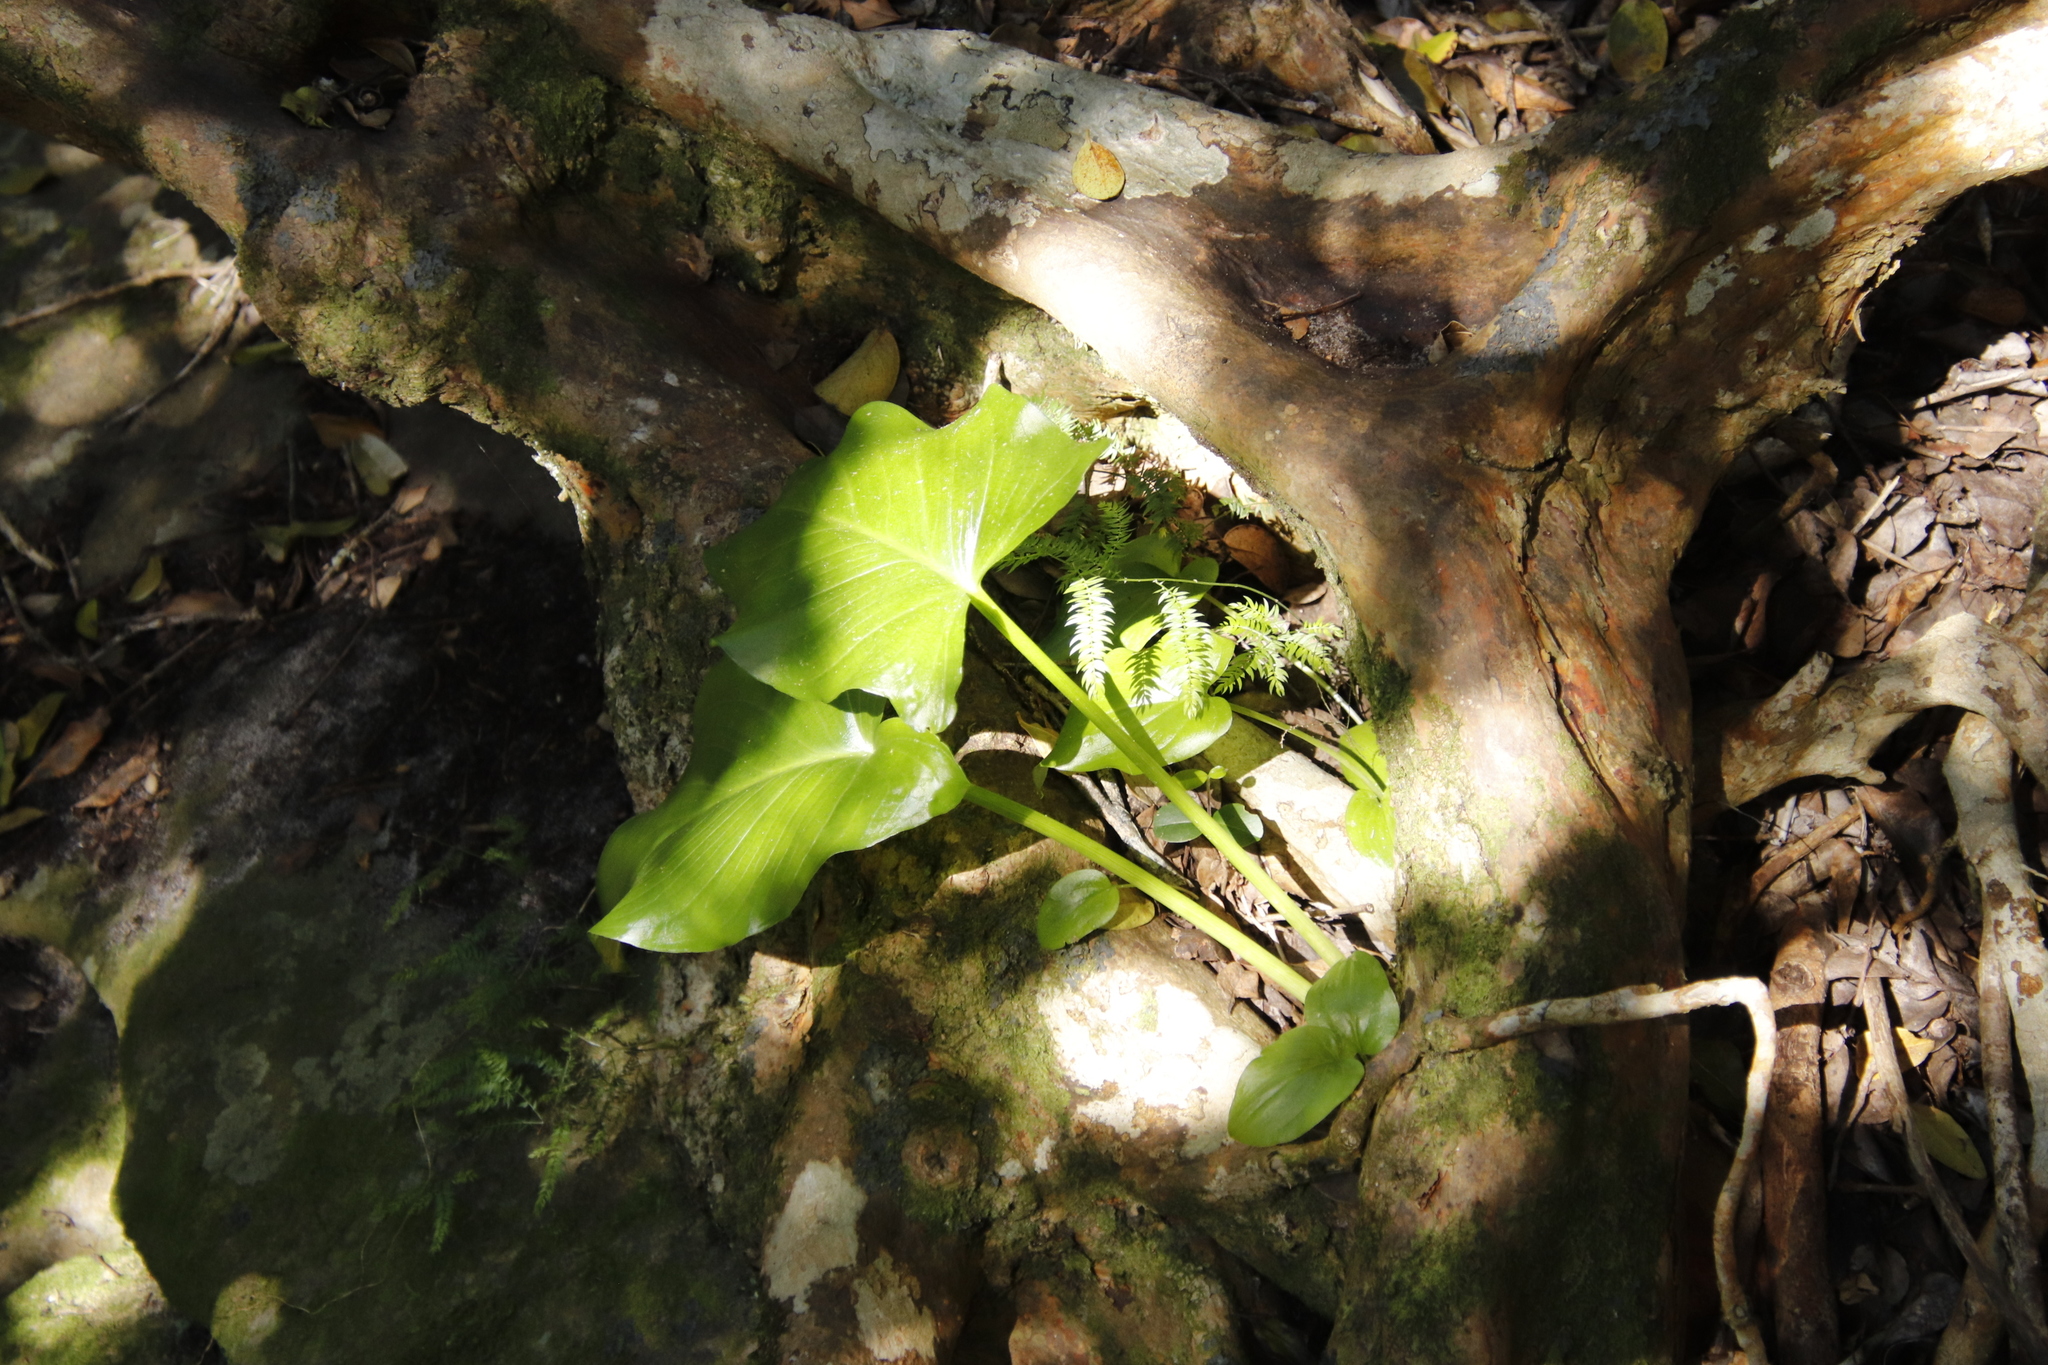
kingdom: Plantae
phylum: Tracheophyta
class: Liliopsida
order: Alismatales
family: Araceae
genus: Zantedeschia
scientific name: Zantedeschia aethiopica
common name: Altar-lily
